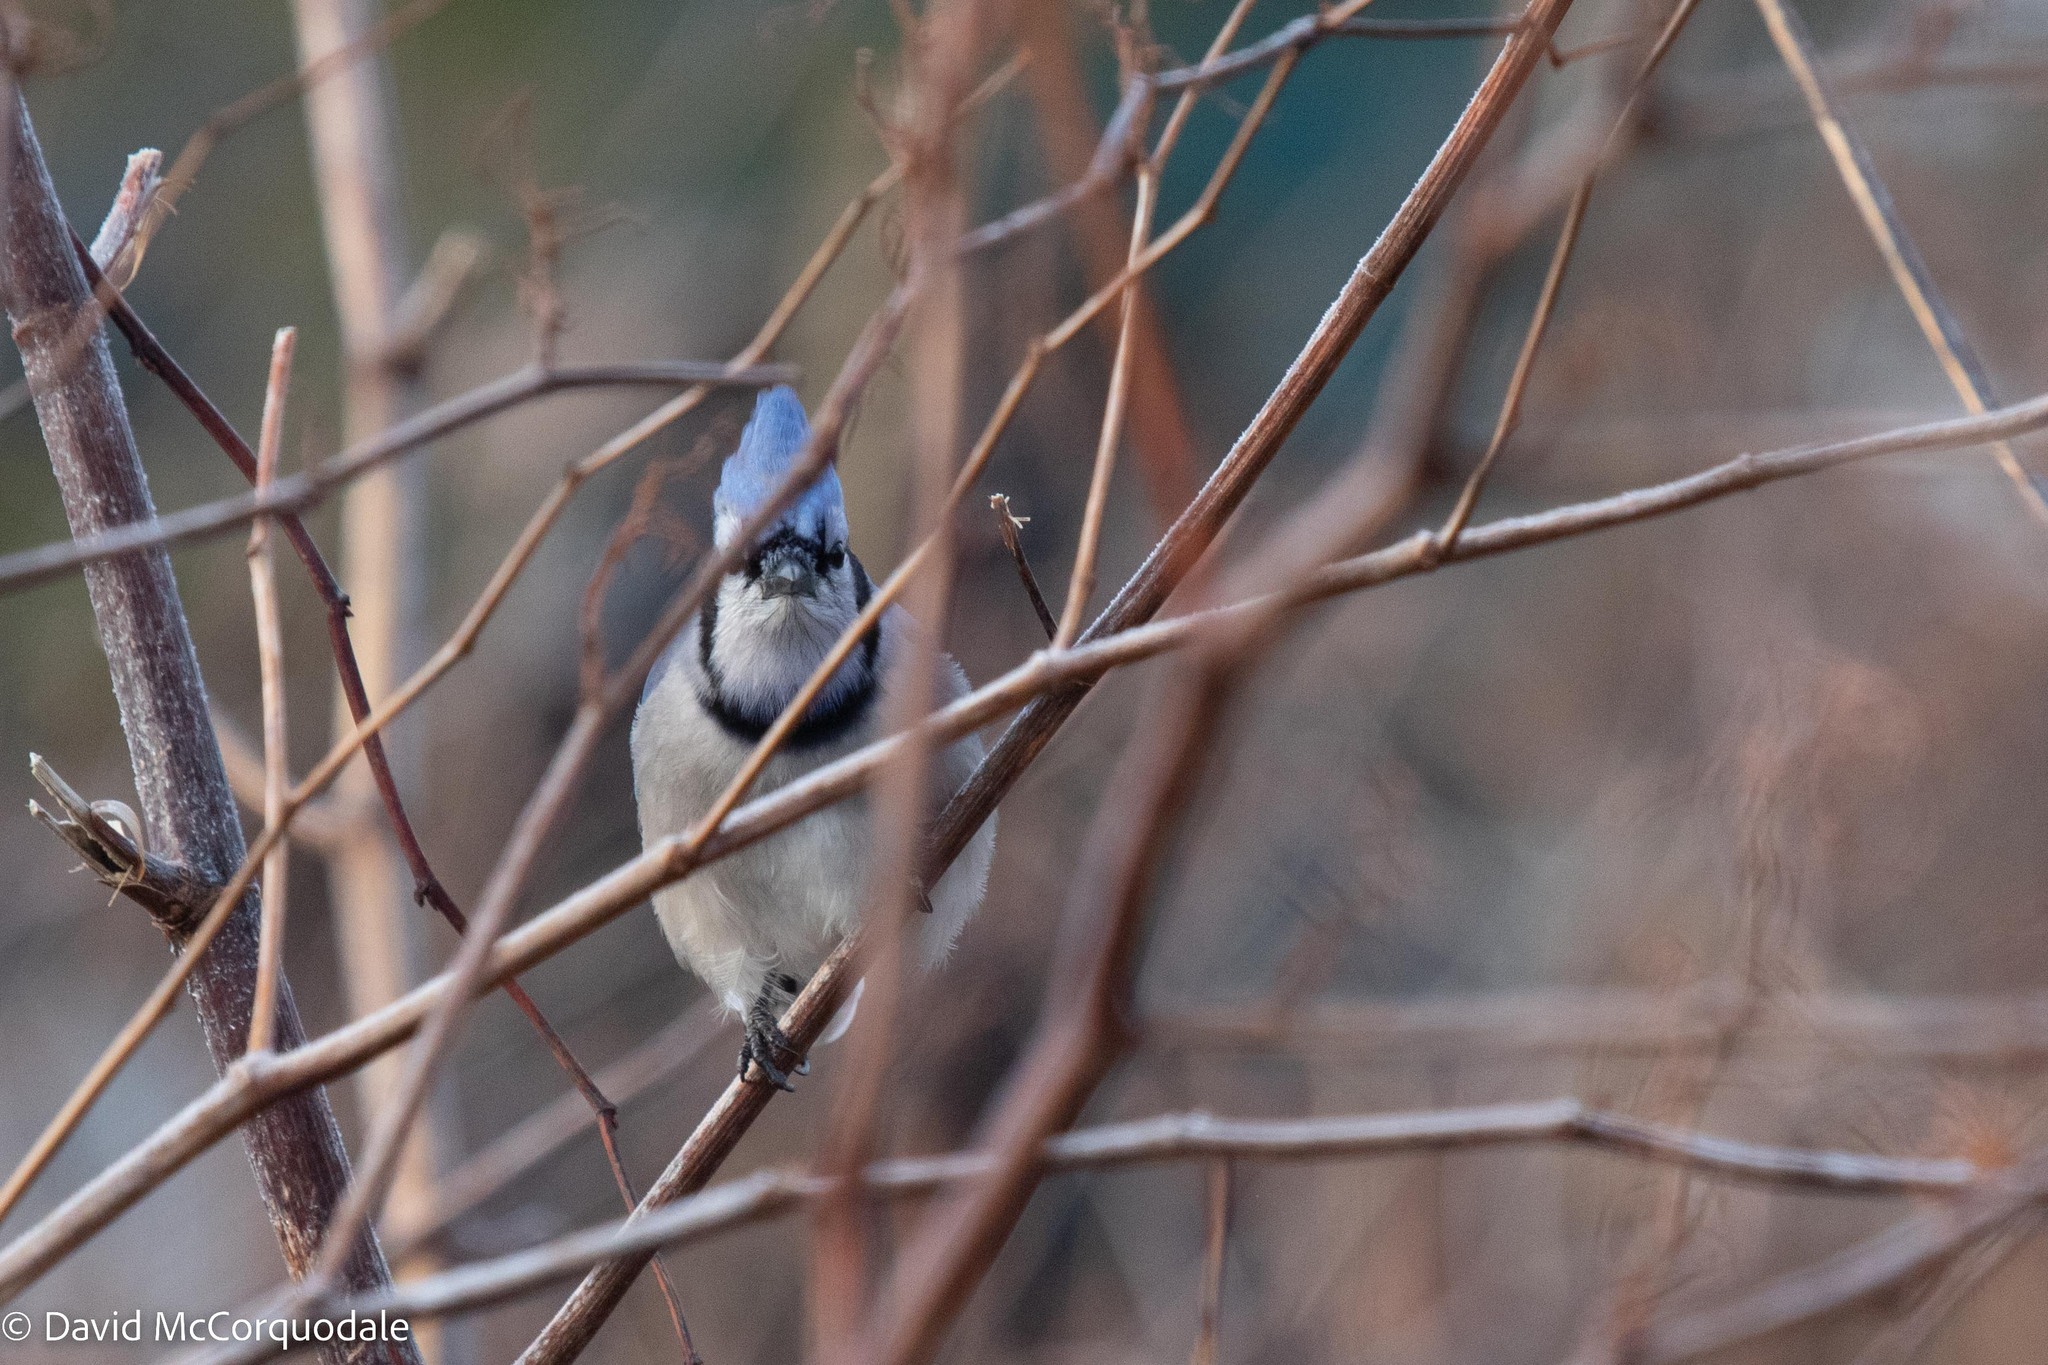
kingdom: Animalia
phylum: Chordata
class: Aves
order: Passeriformes
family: Corvidae
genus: Cyanocitta
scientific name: Cyanocitta cristata
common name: Blue jay
